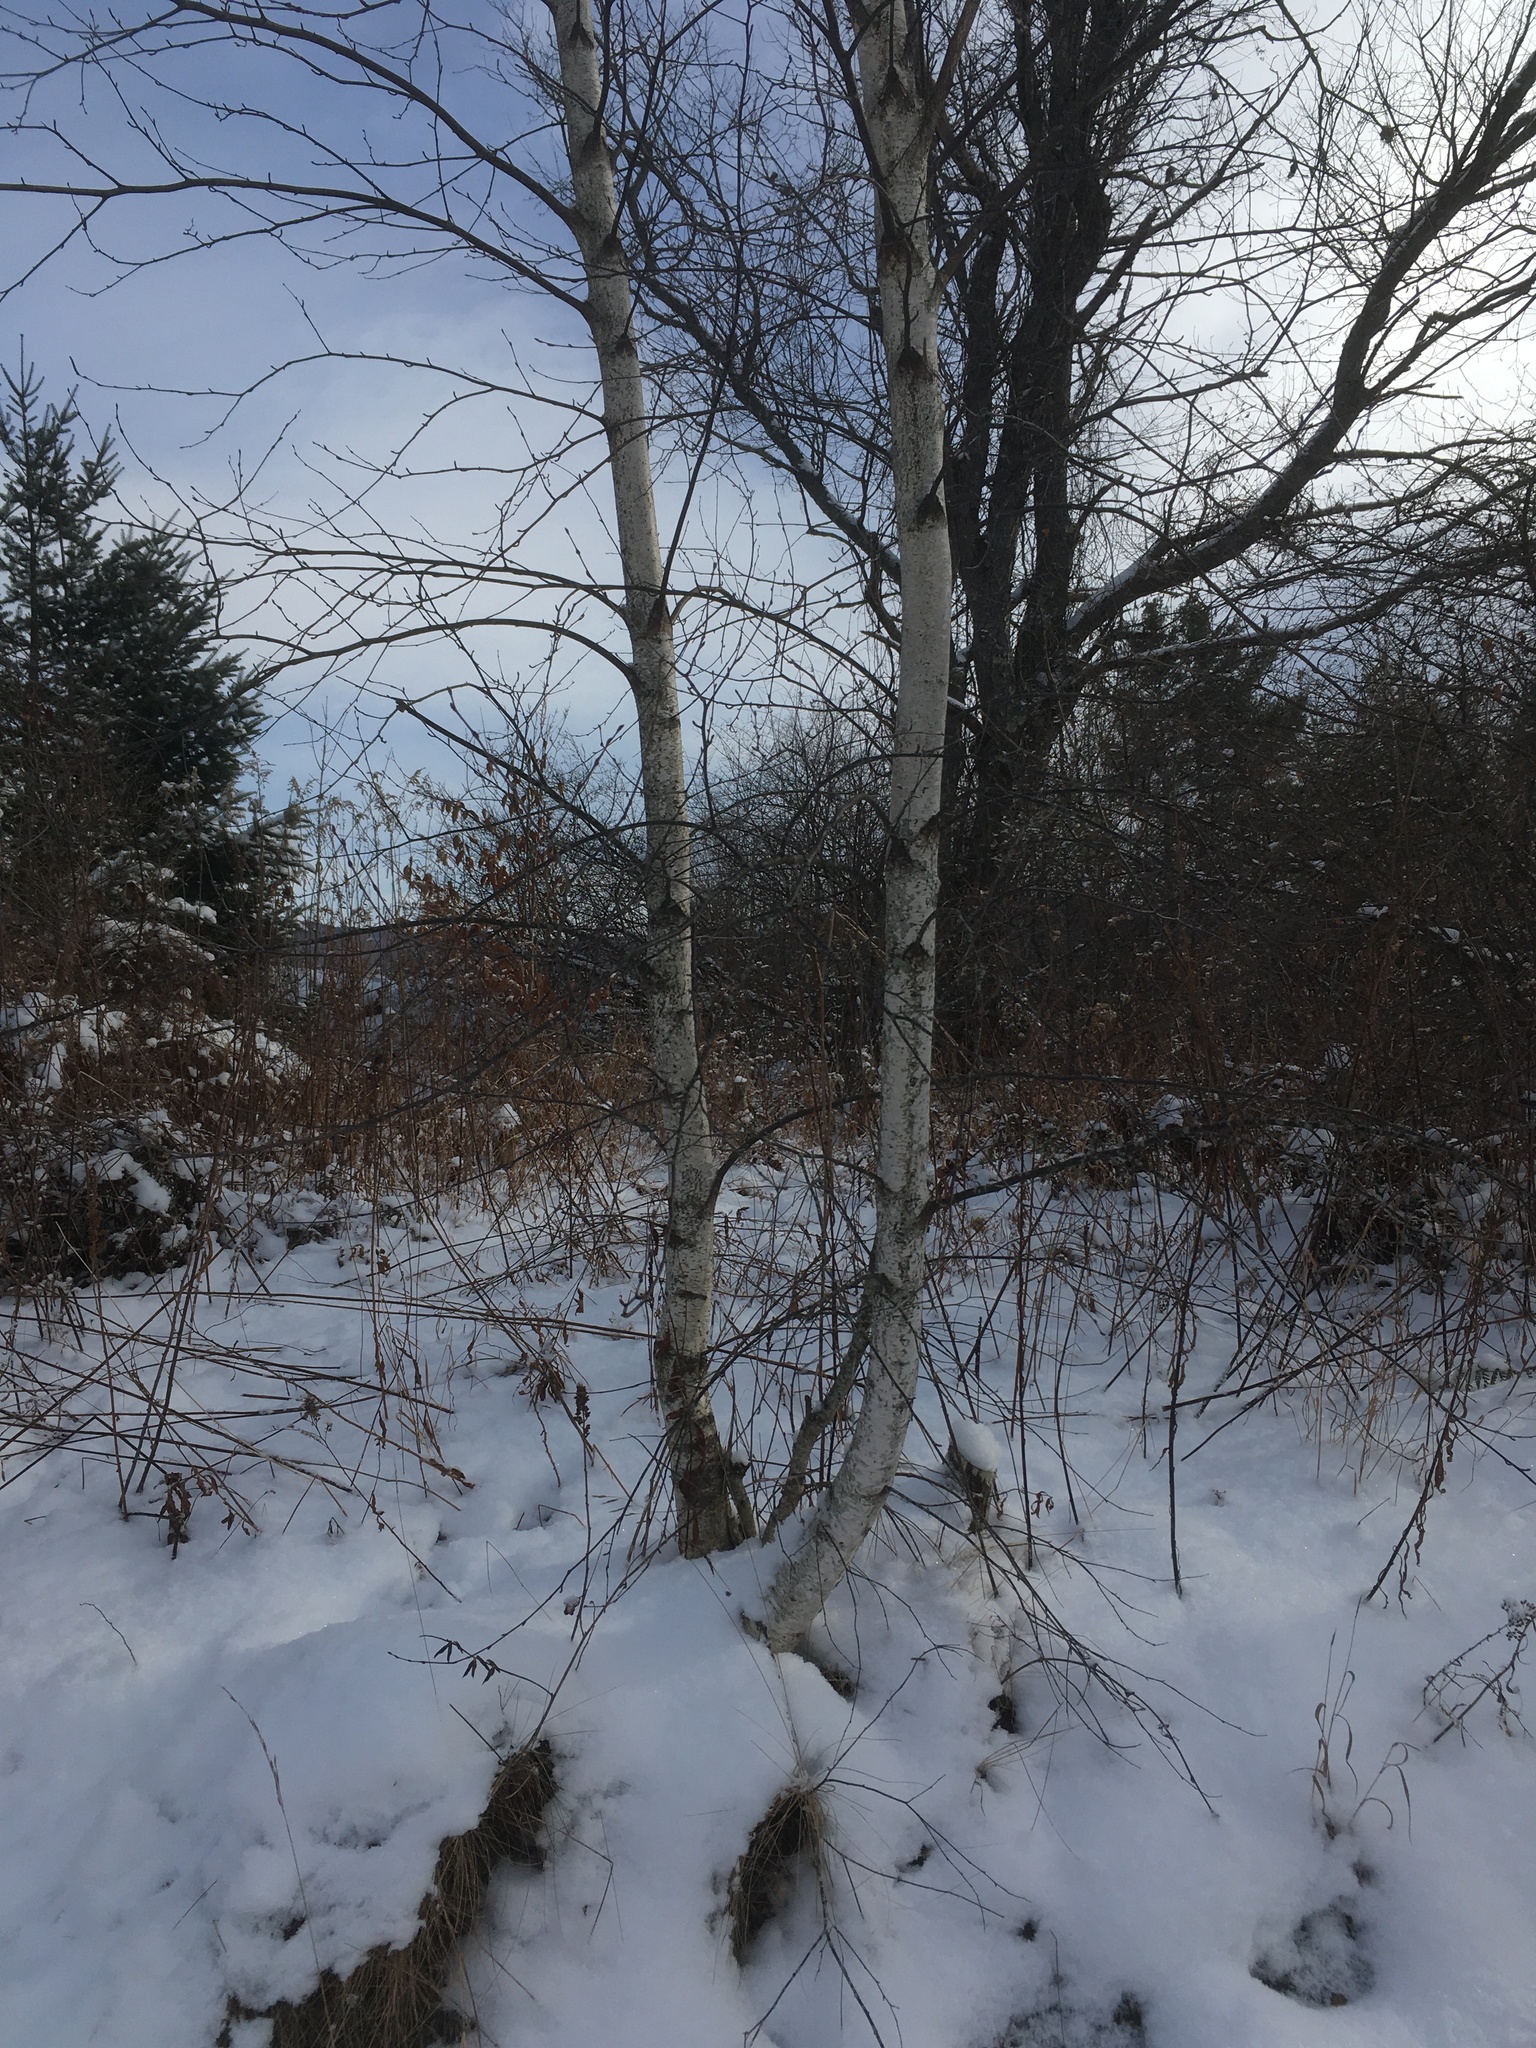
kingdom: Plantae
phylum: Tracheophyta
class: Magnoliopsida
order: Fagales
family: Betulaceae
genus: Betula
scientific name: Betula populifolia
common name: Fire birch
